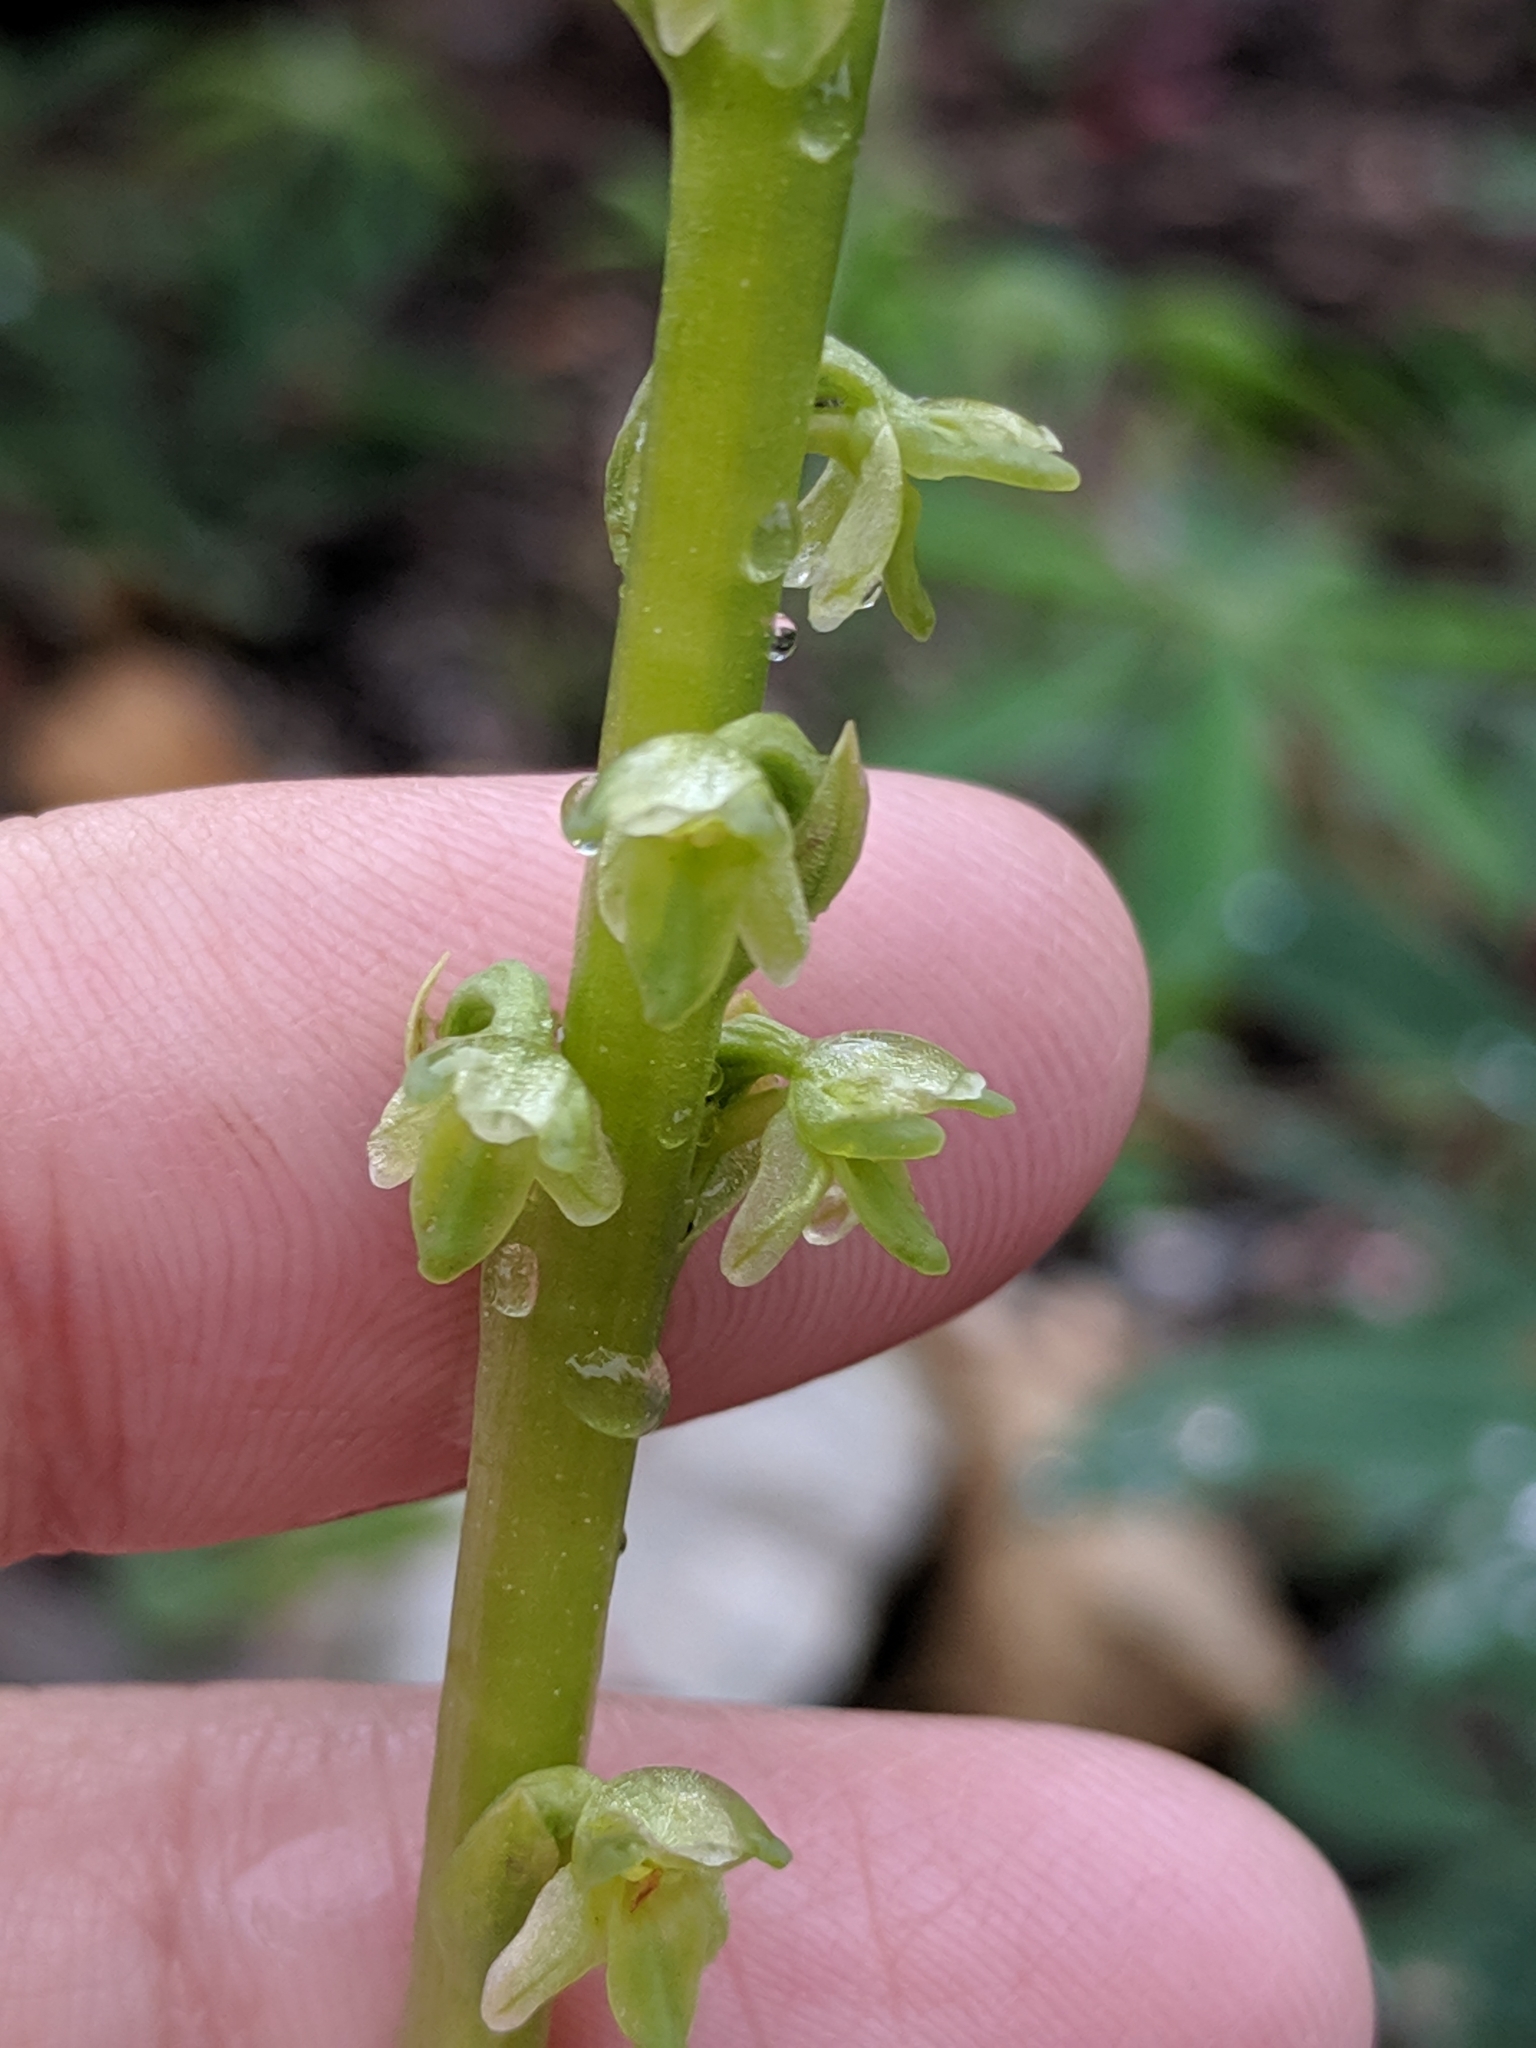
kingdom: Plantae
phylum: Tracheophyta
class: Liliopsida
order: Asparagales
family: Orchidaceae
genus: Platanthera
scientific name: Platanthera unalascensis
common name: Alaska bog orchid
